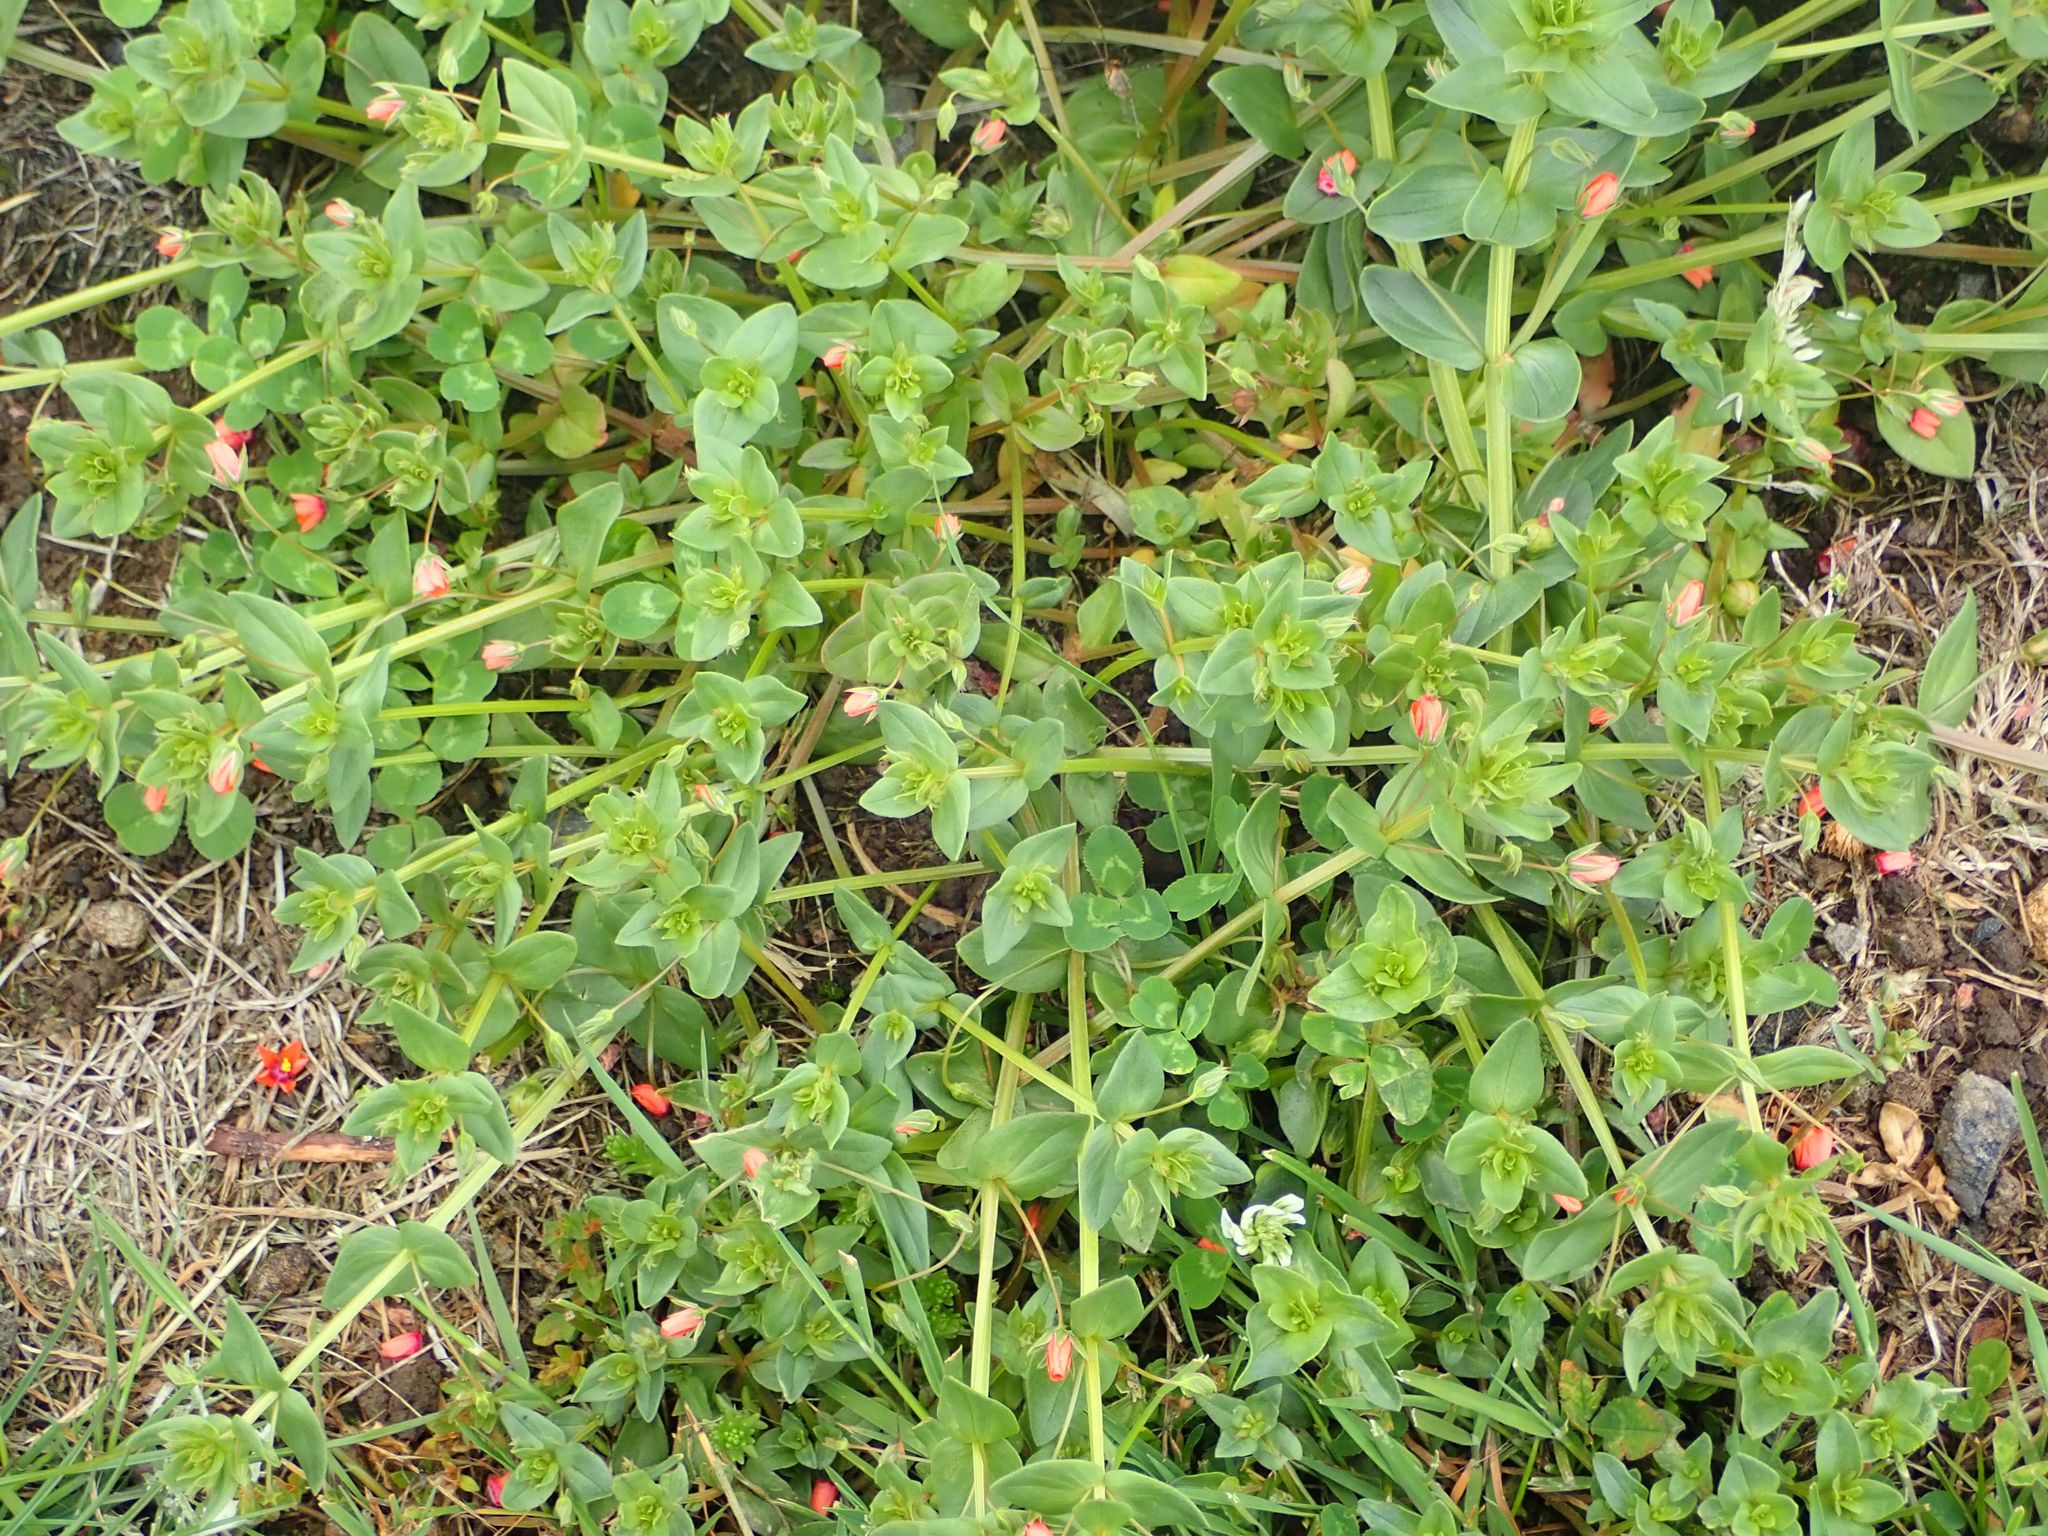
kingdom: Plantae
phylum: Tracheophyta
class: Magnoliopsida
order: Ericales
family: Primulaceae
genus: Lysimachia
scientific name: Lysimachia arvensis
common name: Scarlet pimpernel
